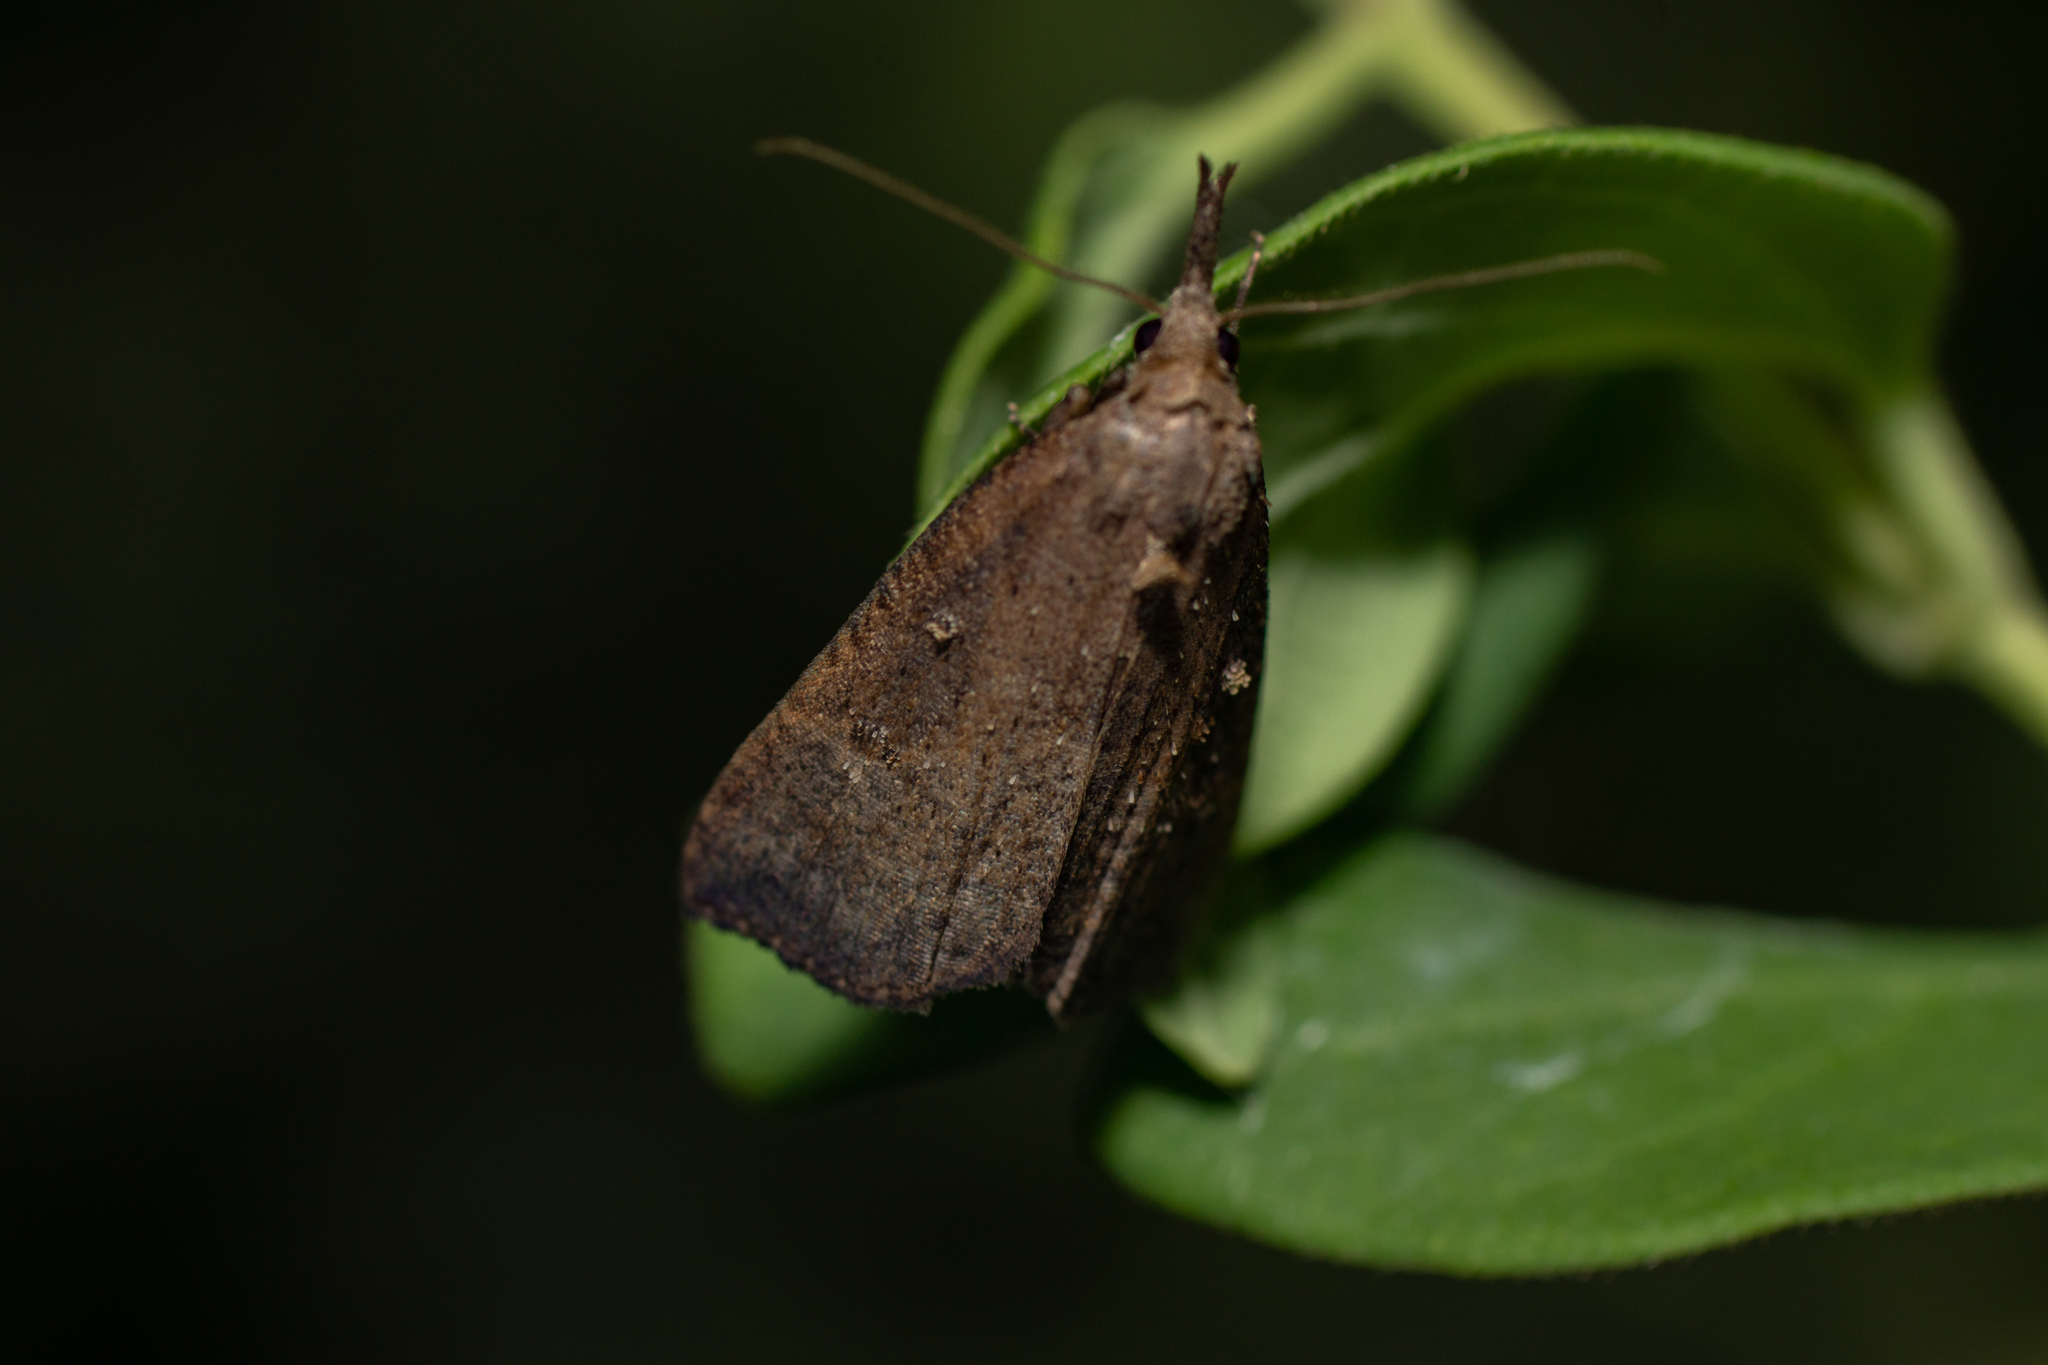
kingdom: Animalia
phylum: Arthropoda
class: Insecta
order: Lepidoptera
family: Erebidae
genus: Hypena
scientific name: Hypena rostralis
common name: Buttoned snout
